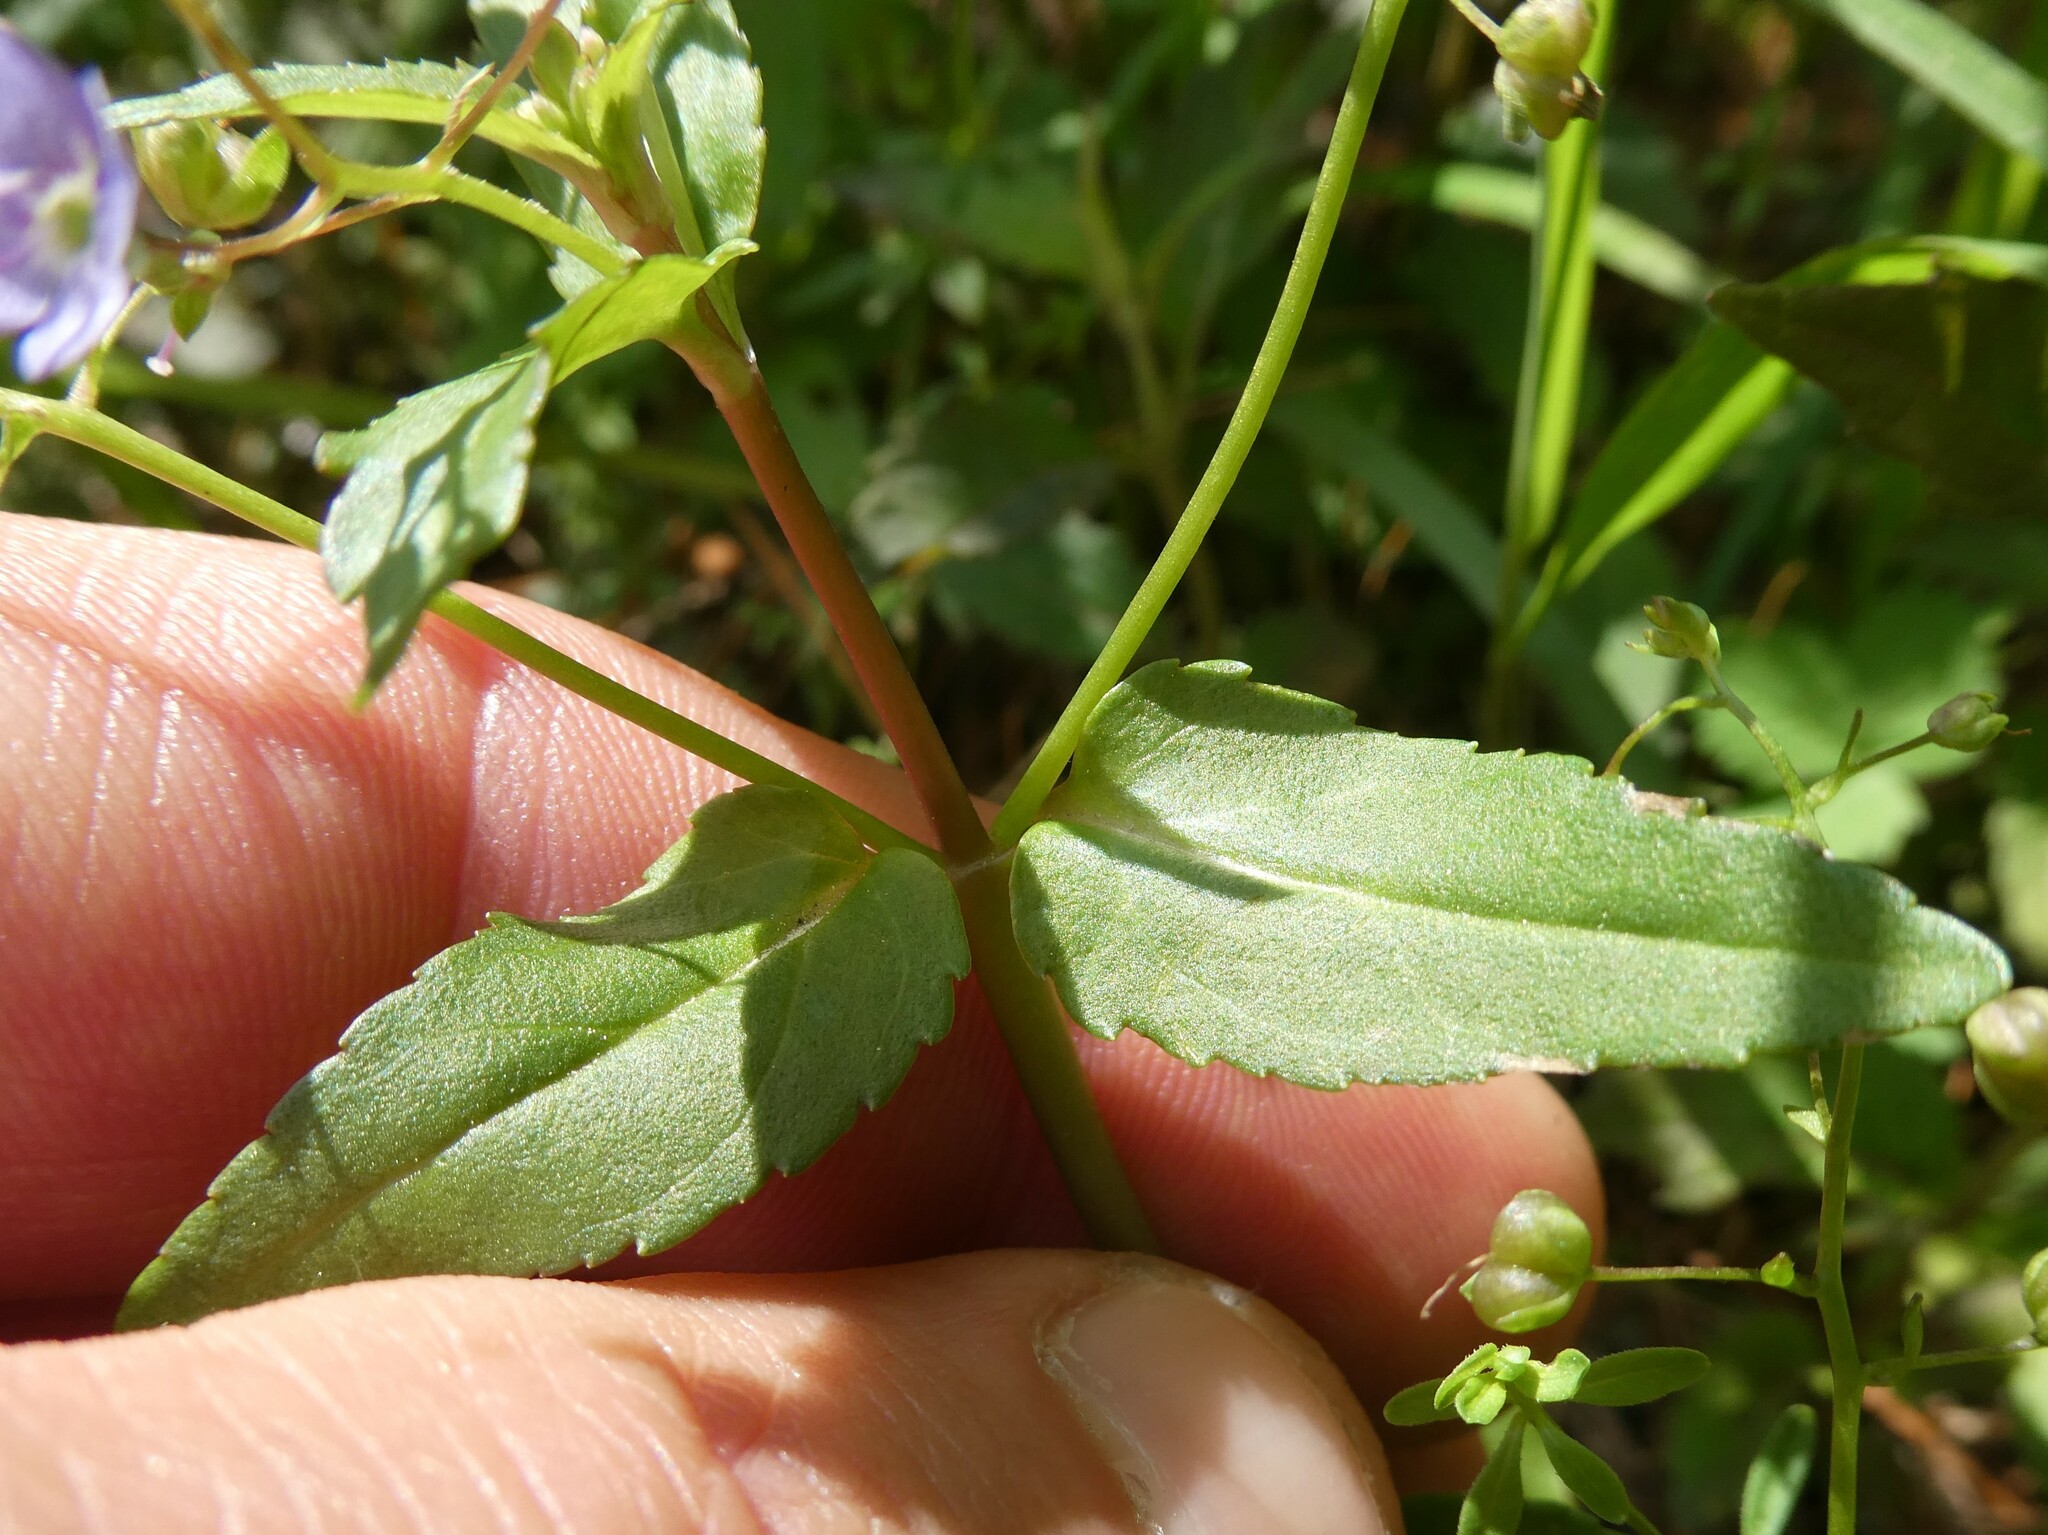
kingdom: Plantae
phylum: Tracheophyta
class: Magnoliopsida
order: Lamiales
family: Plantaginaceae
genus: Veronica
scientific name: Veronica americana
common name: American brooklime
